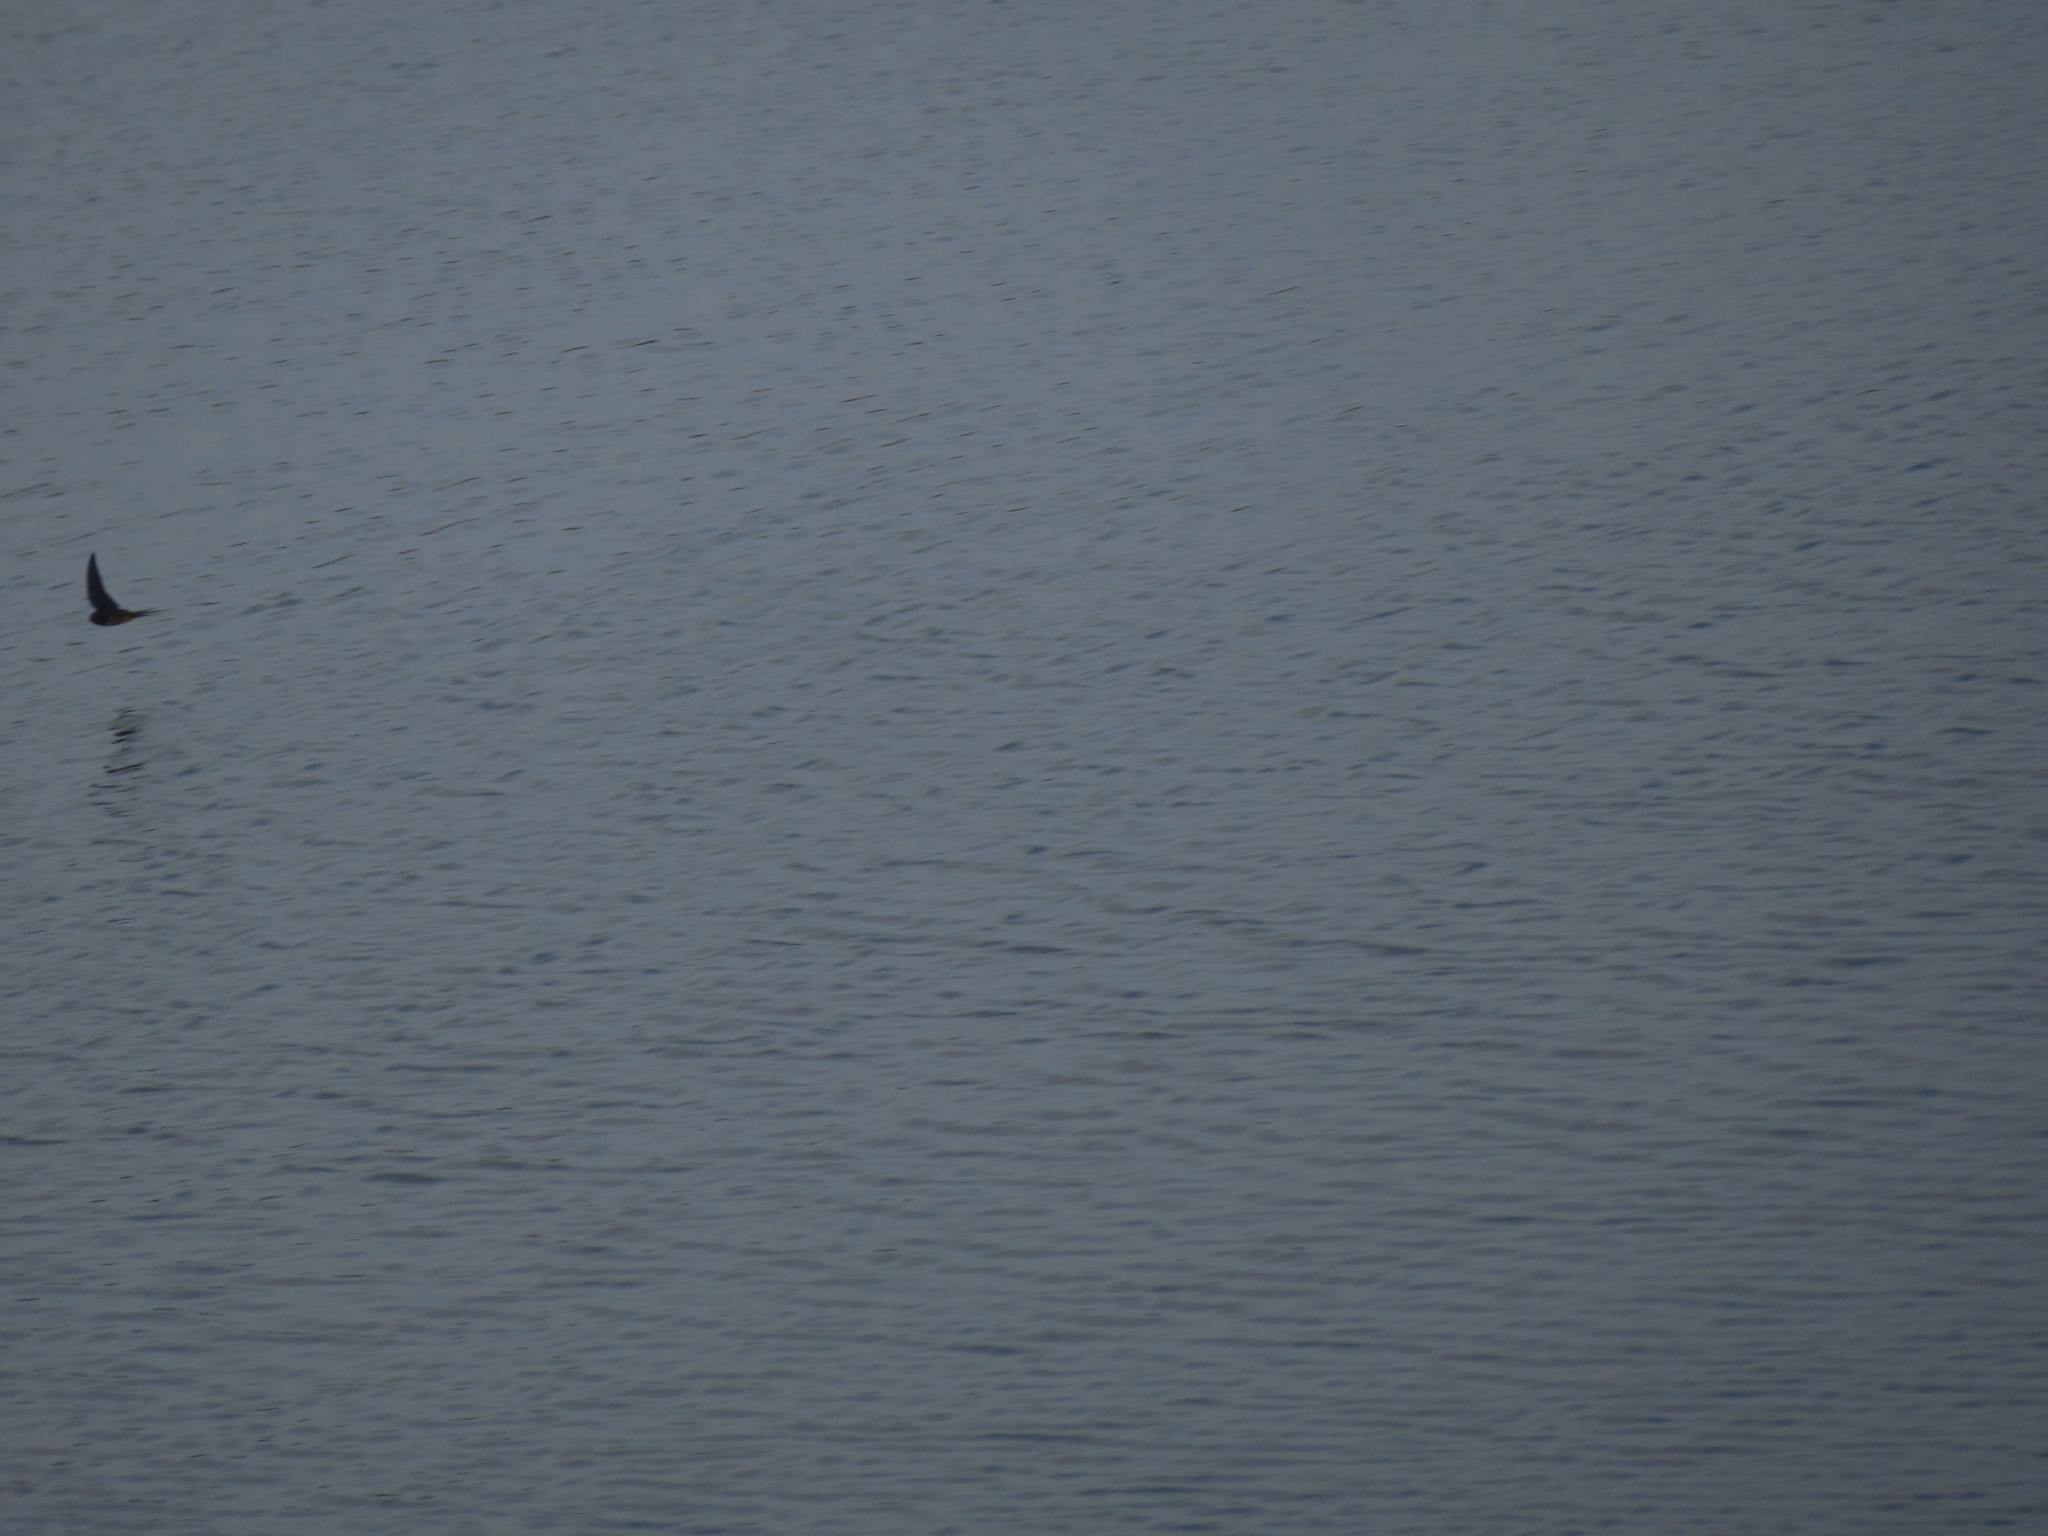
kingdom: Animalia
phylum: Chordata
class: Aves
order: Passeriformes
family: Hirundinidae
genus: Hirundo
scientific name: Hirundo rustica
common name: Barn swallow
